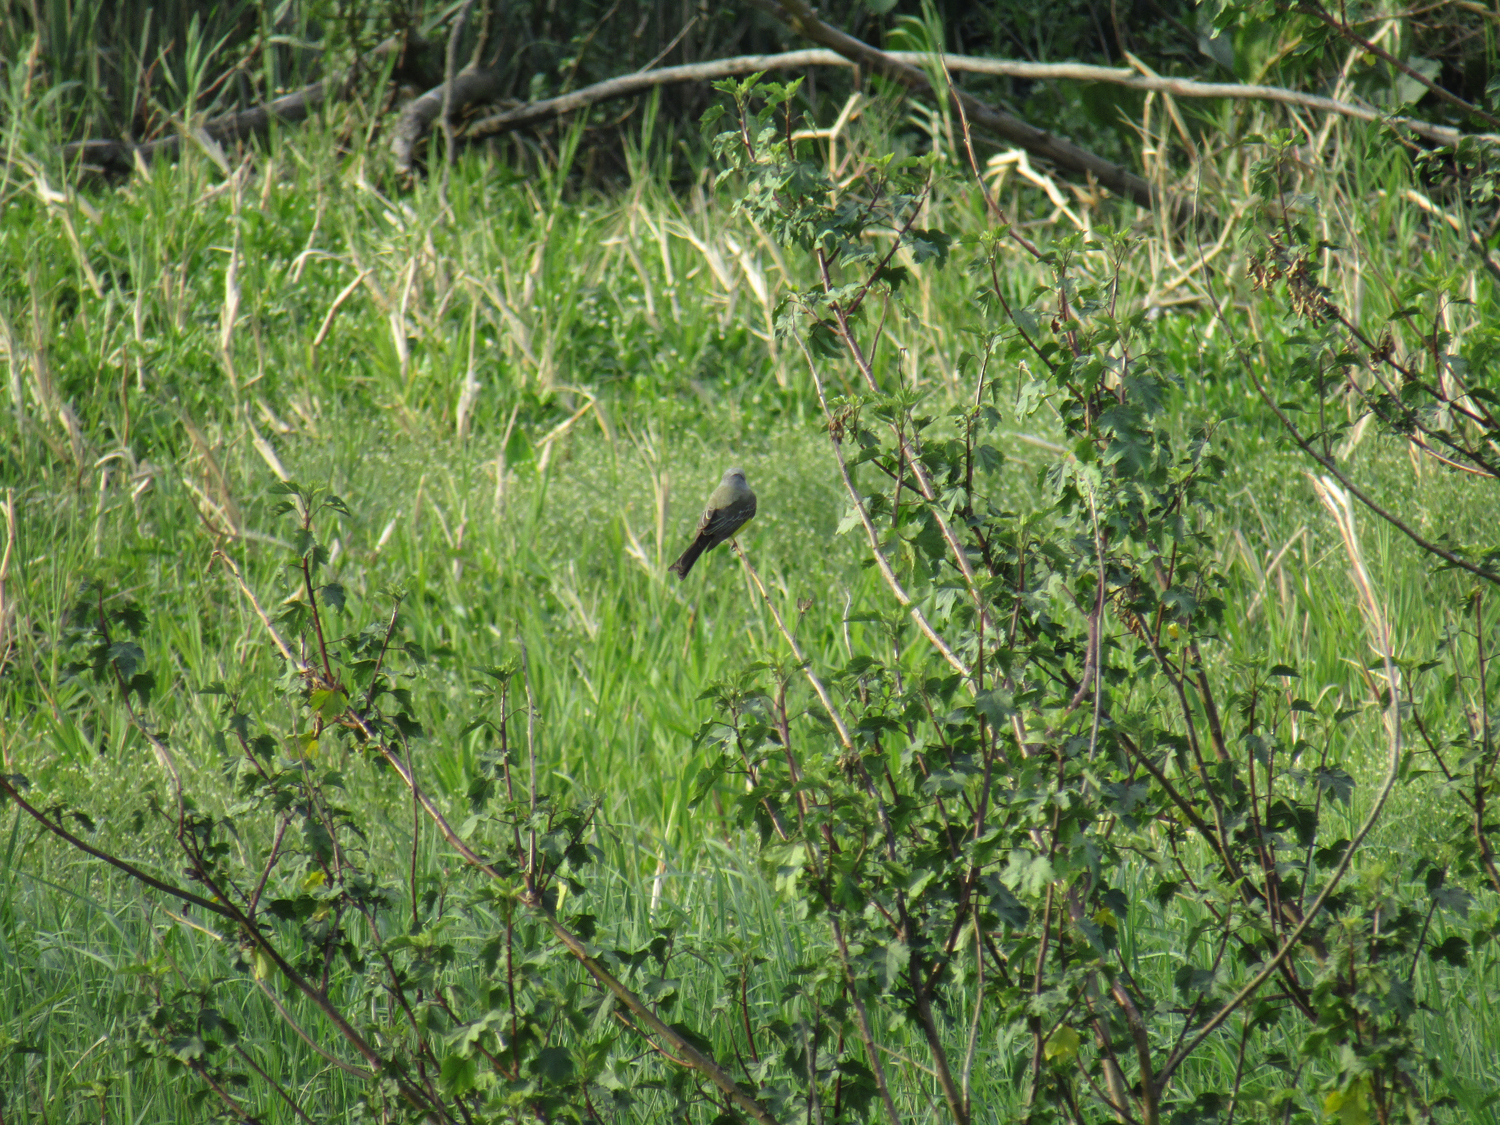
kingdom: Animalia
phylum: Chordata
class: Aves
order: Passeriformes
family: Tyrannidae
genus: Tyrannus
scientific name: Tyrannus melancholicus
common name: Tropical kingbird
